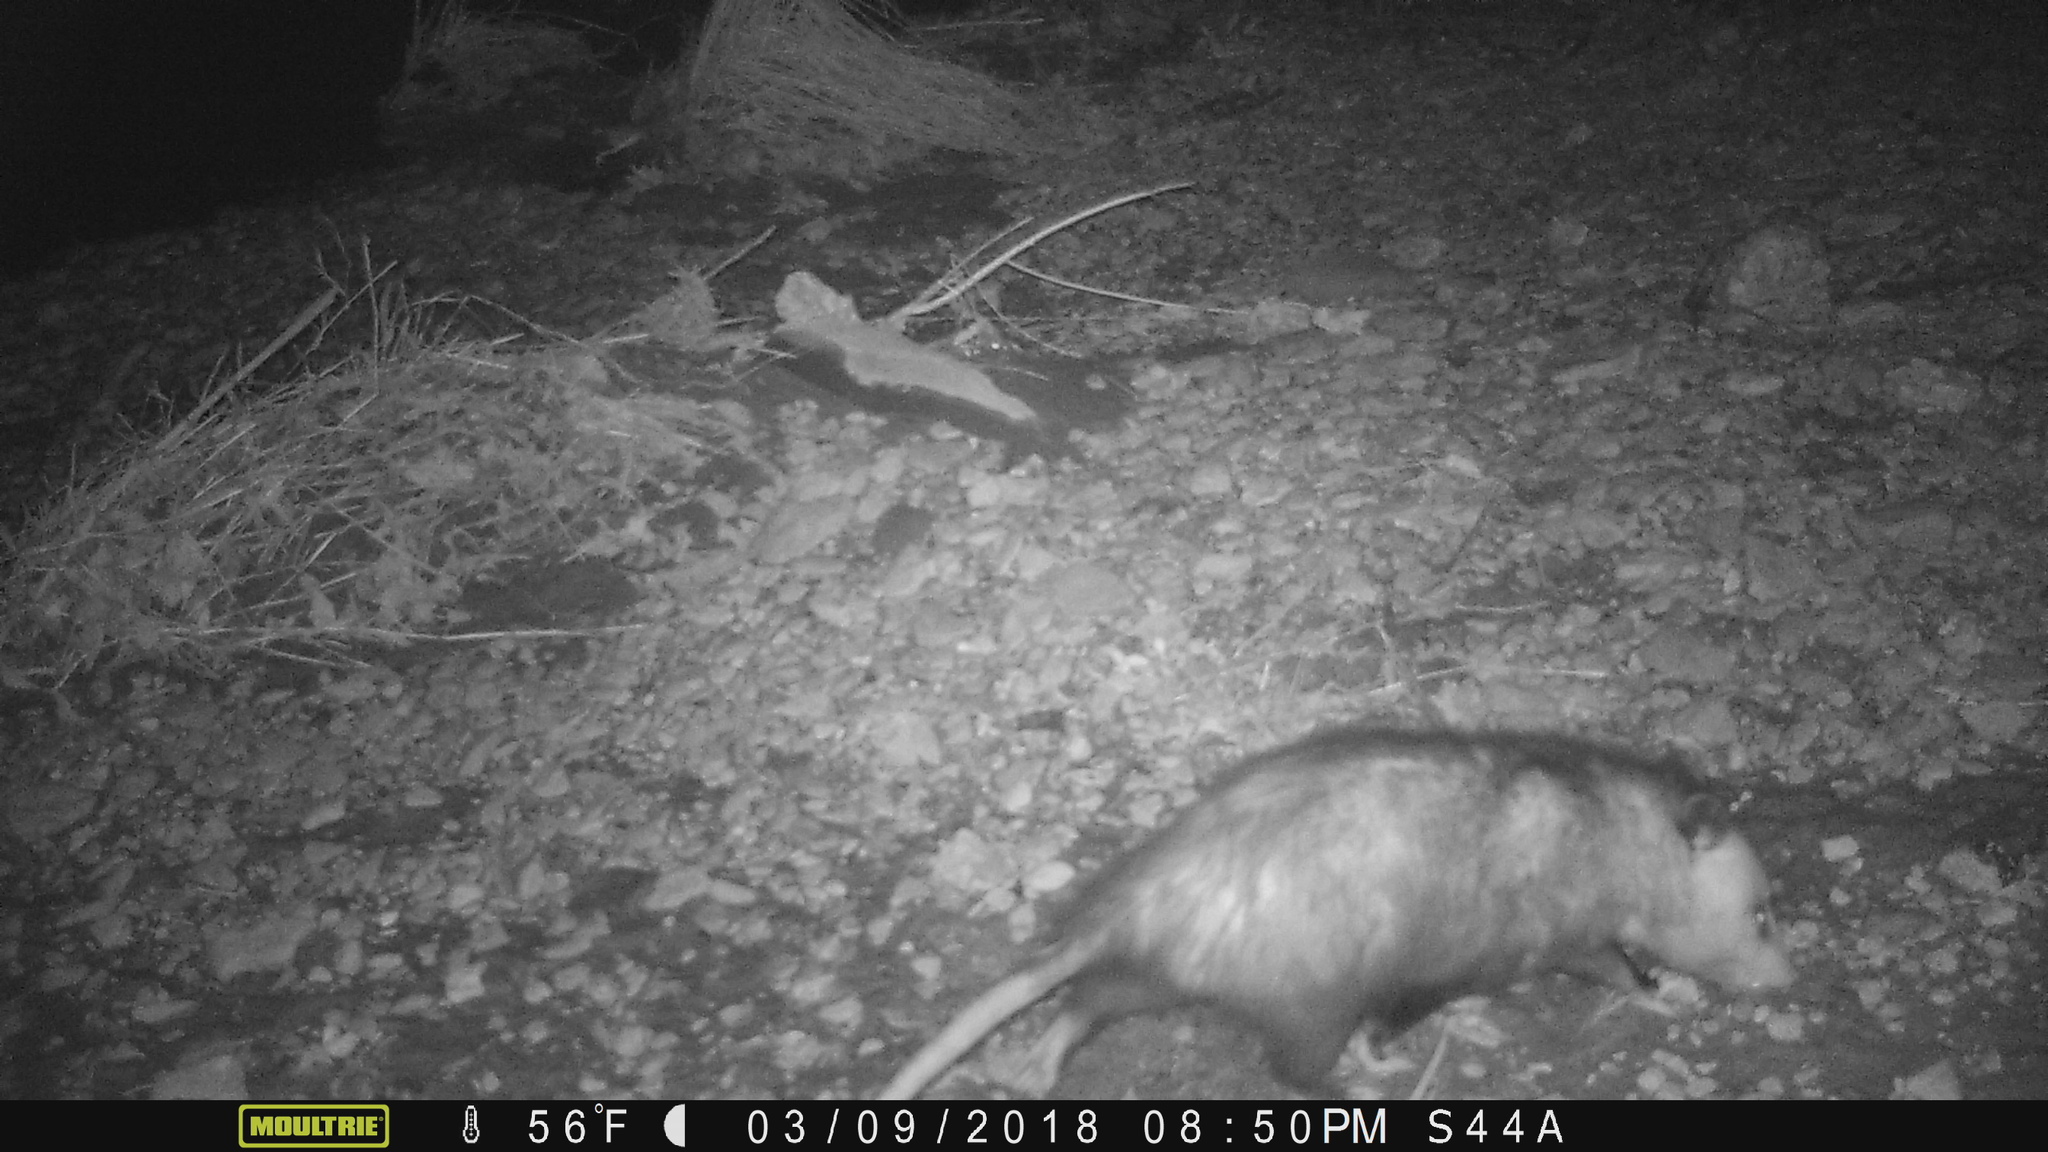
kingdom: Animalia
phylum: Chordata
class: Mammalia
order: Didelphimorphia
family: Didelphidae
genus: Didelphis
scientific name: Didelphis virginiana
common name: Virginia opossum
